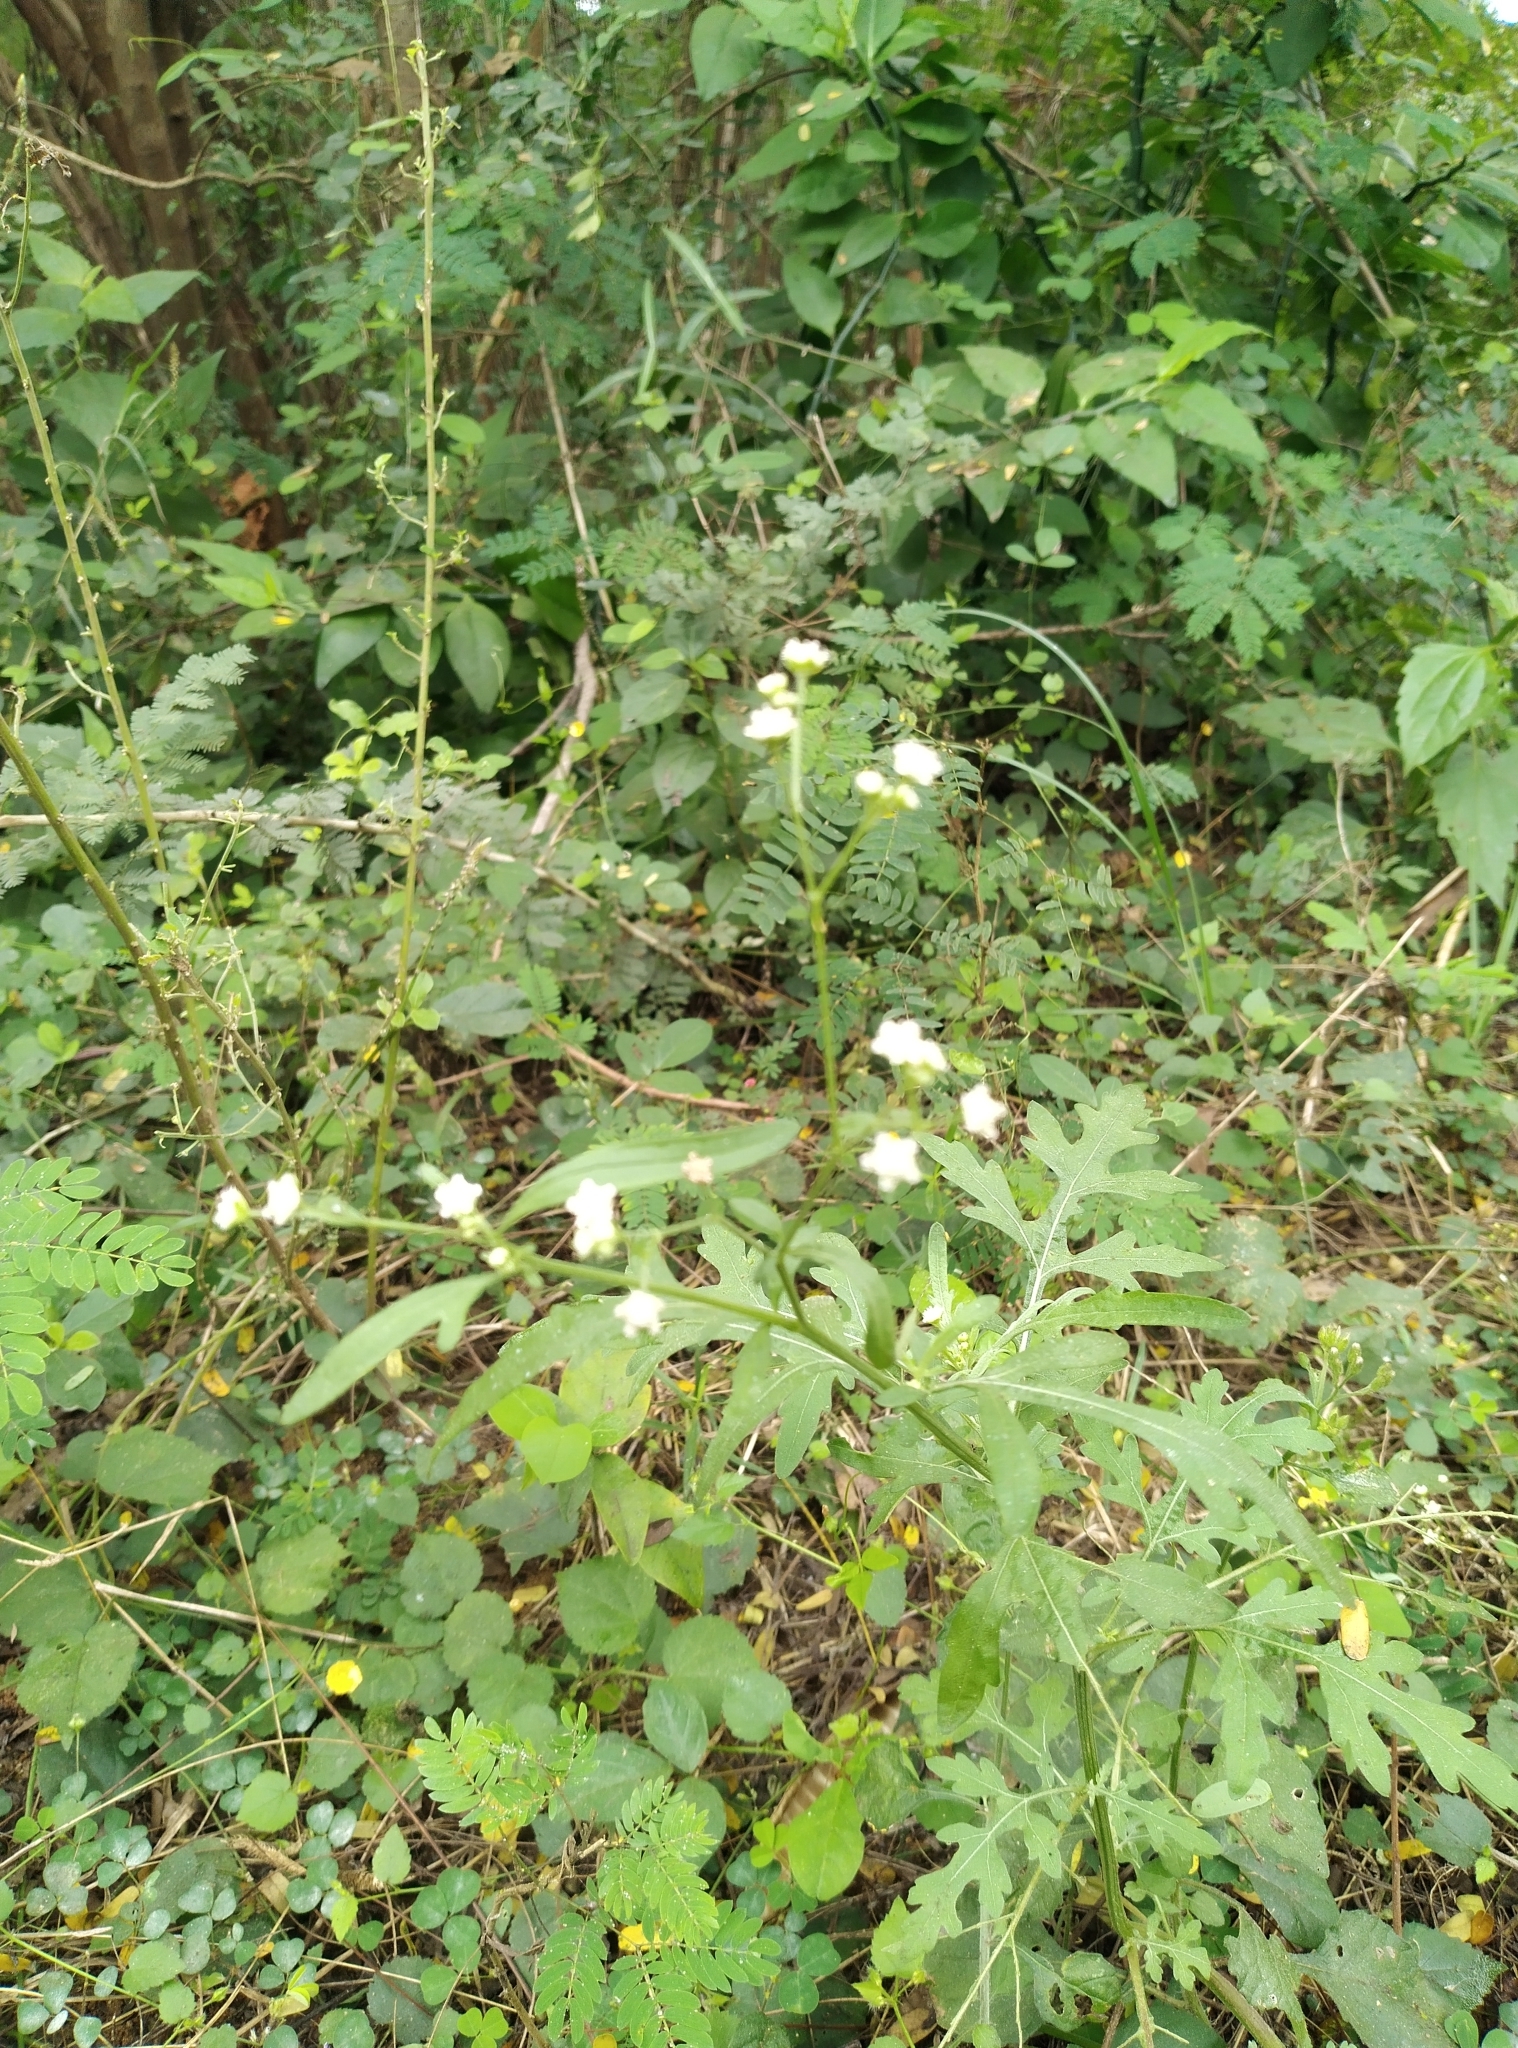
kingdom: Plantae
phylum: Tracheophyta
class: Magnoliopsida
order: Asterales
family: Asteraceae
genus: Parthenium
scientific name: Parthenium hysterophorus
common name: Santa maria feverfew
